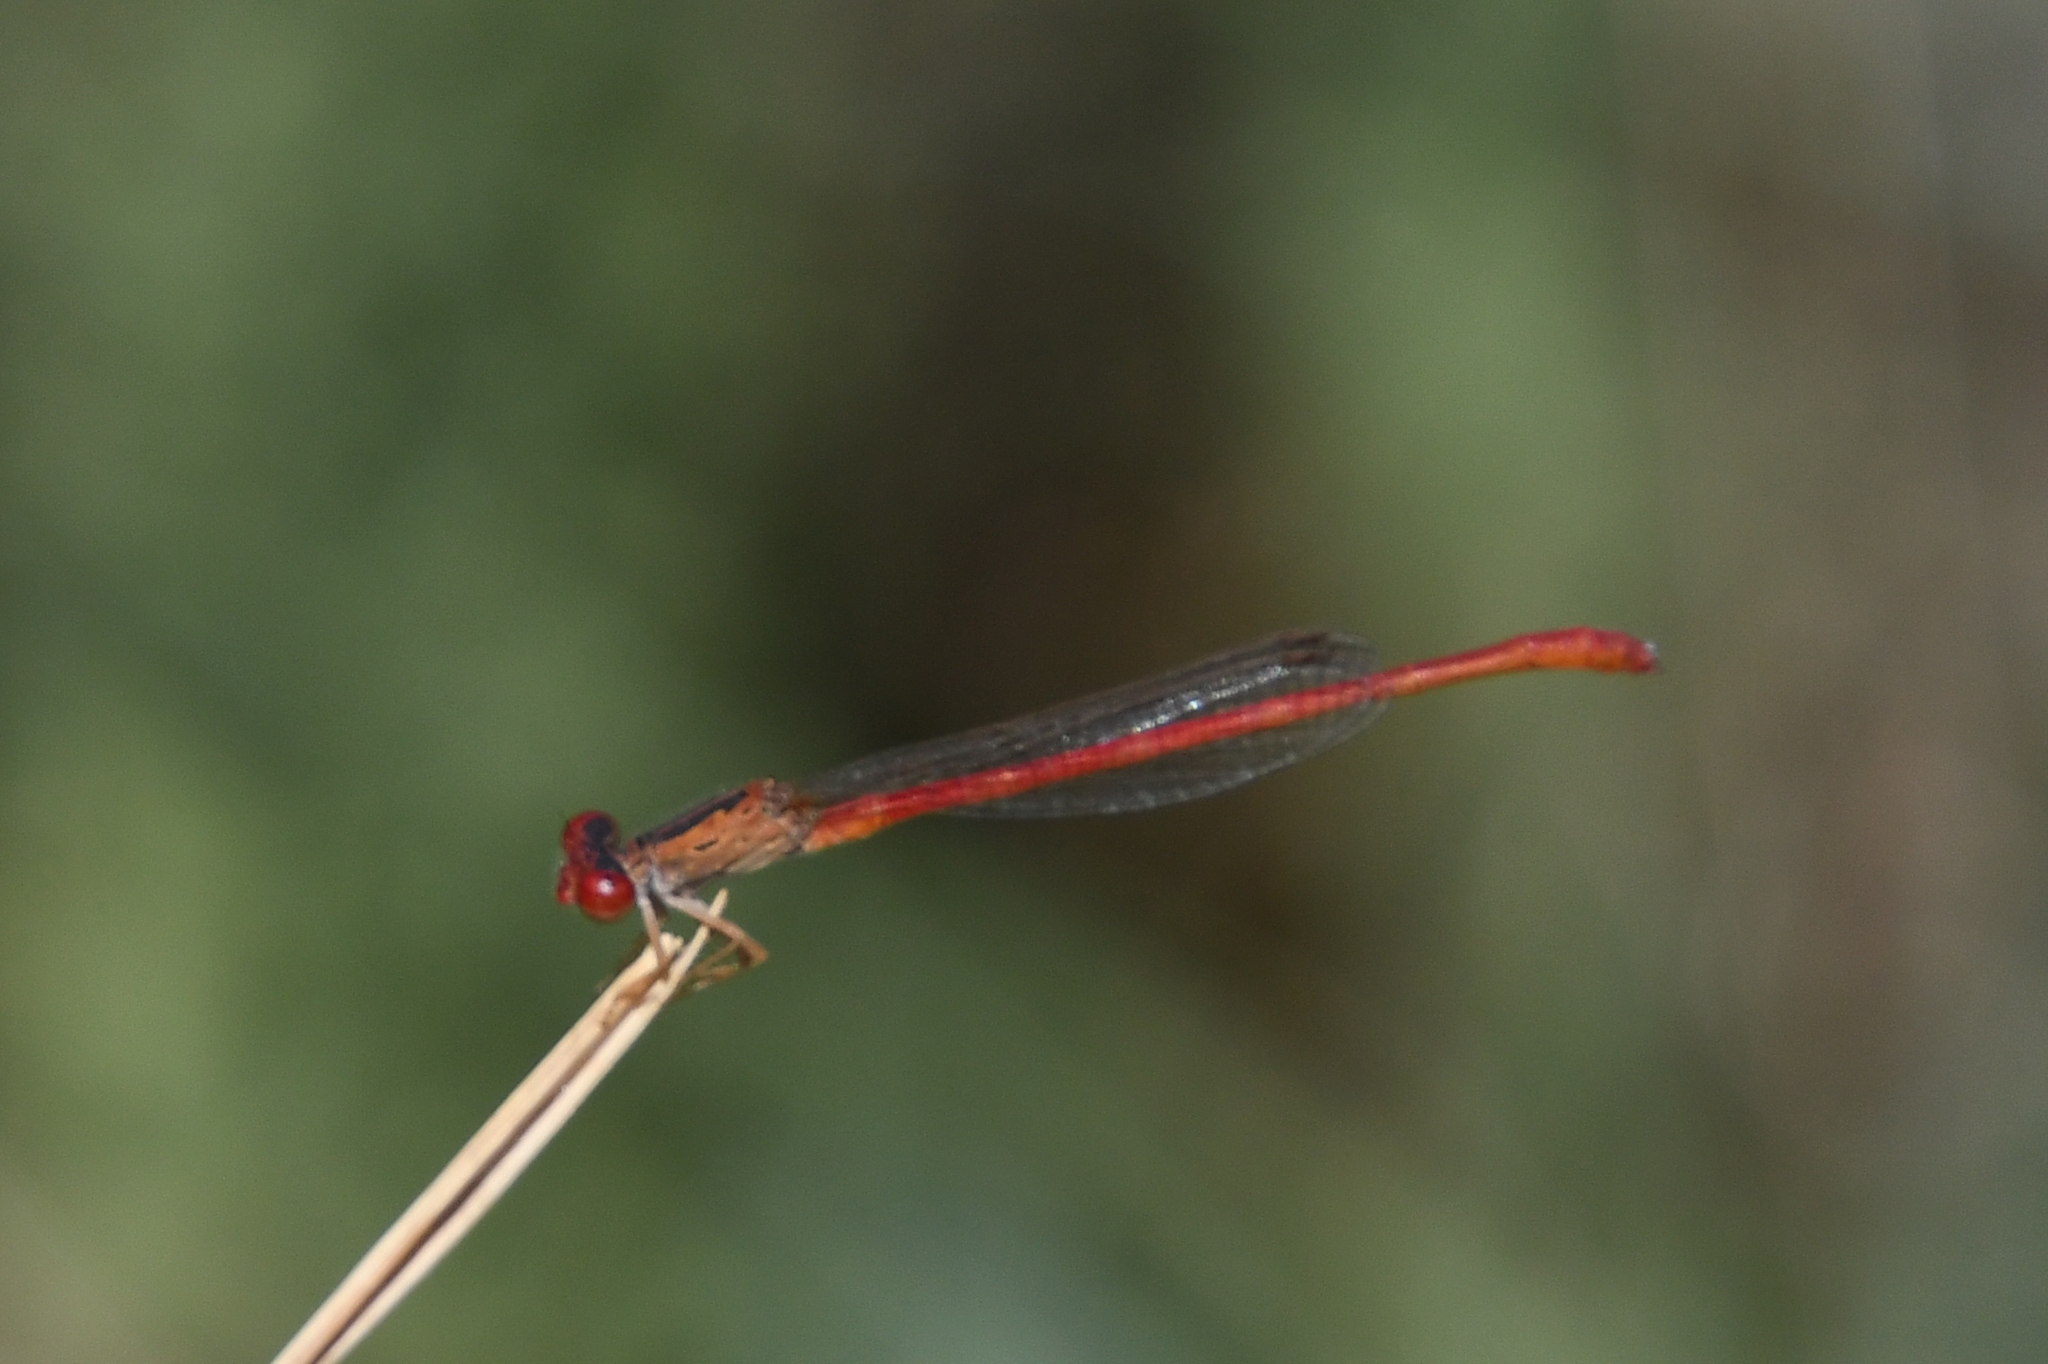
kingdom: Animalia
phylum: Arthropoda
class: Insecta
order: Odonata
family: Coenagrionidae
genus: Telebasis
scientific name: Telebasis salva
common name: Desert firetail
